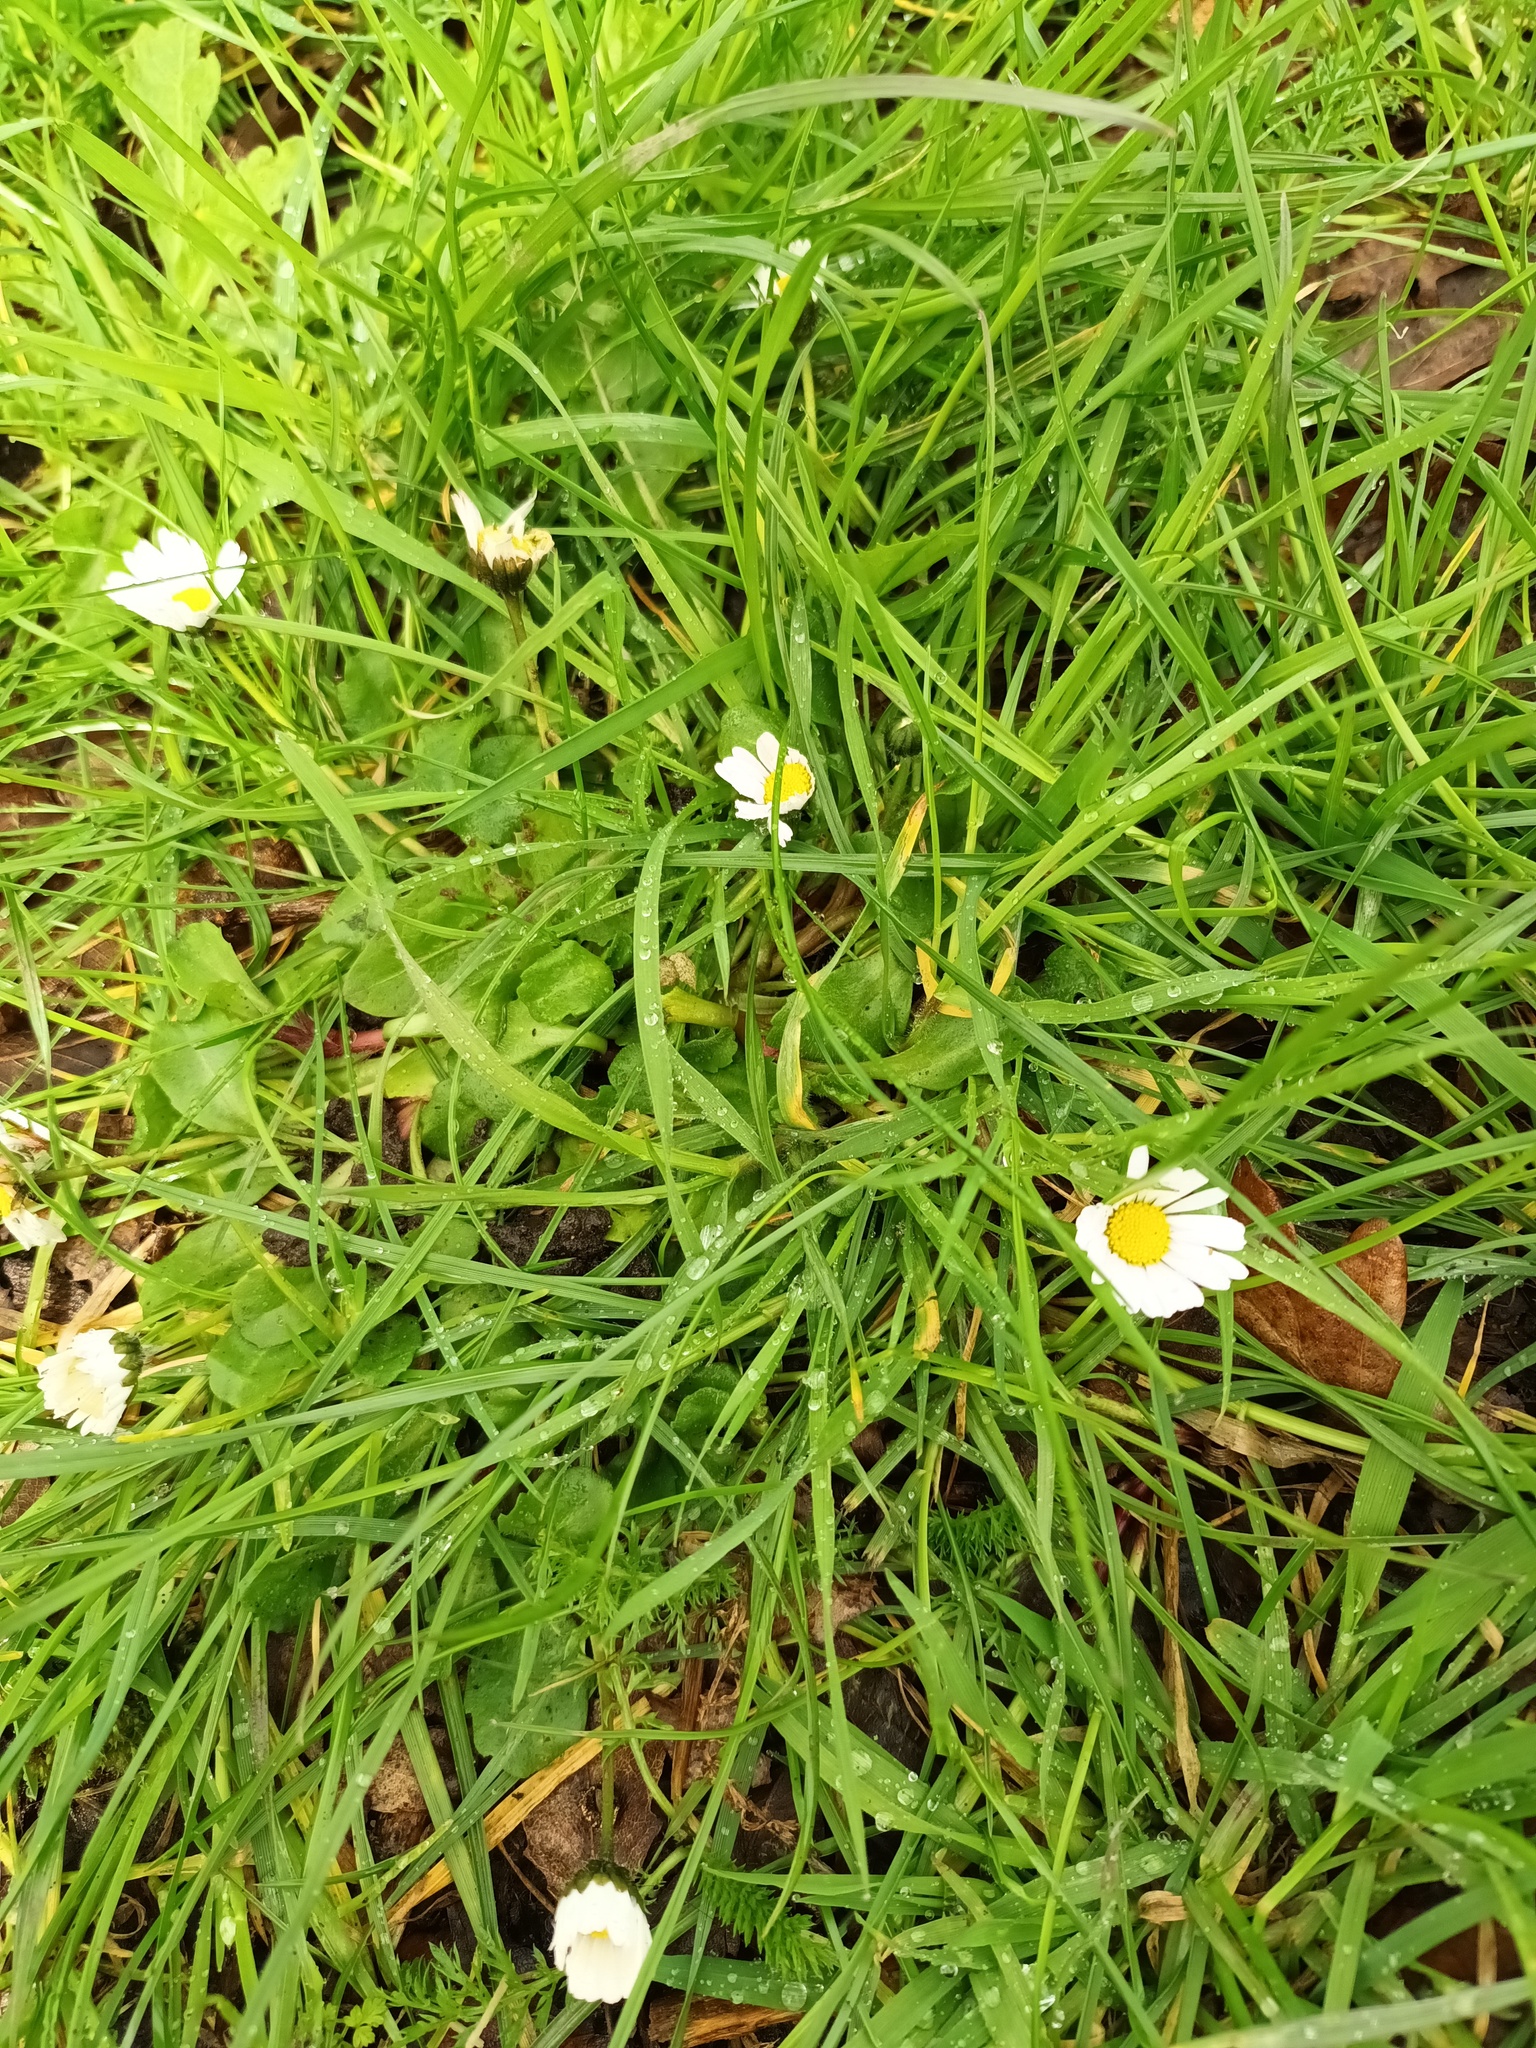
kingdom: Plantae
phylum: Tracheophyta
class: Magnoliopsida
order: Asterales
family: Asteraceae
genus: Bellis
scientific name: Bellis perennis
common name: Lawndaisy
